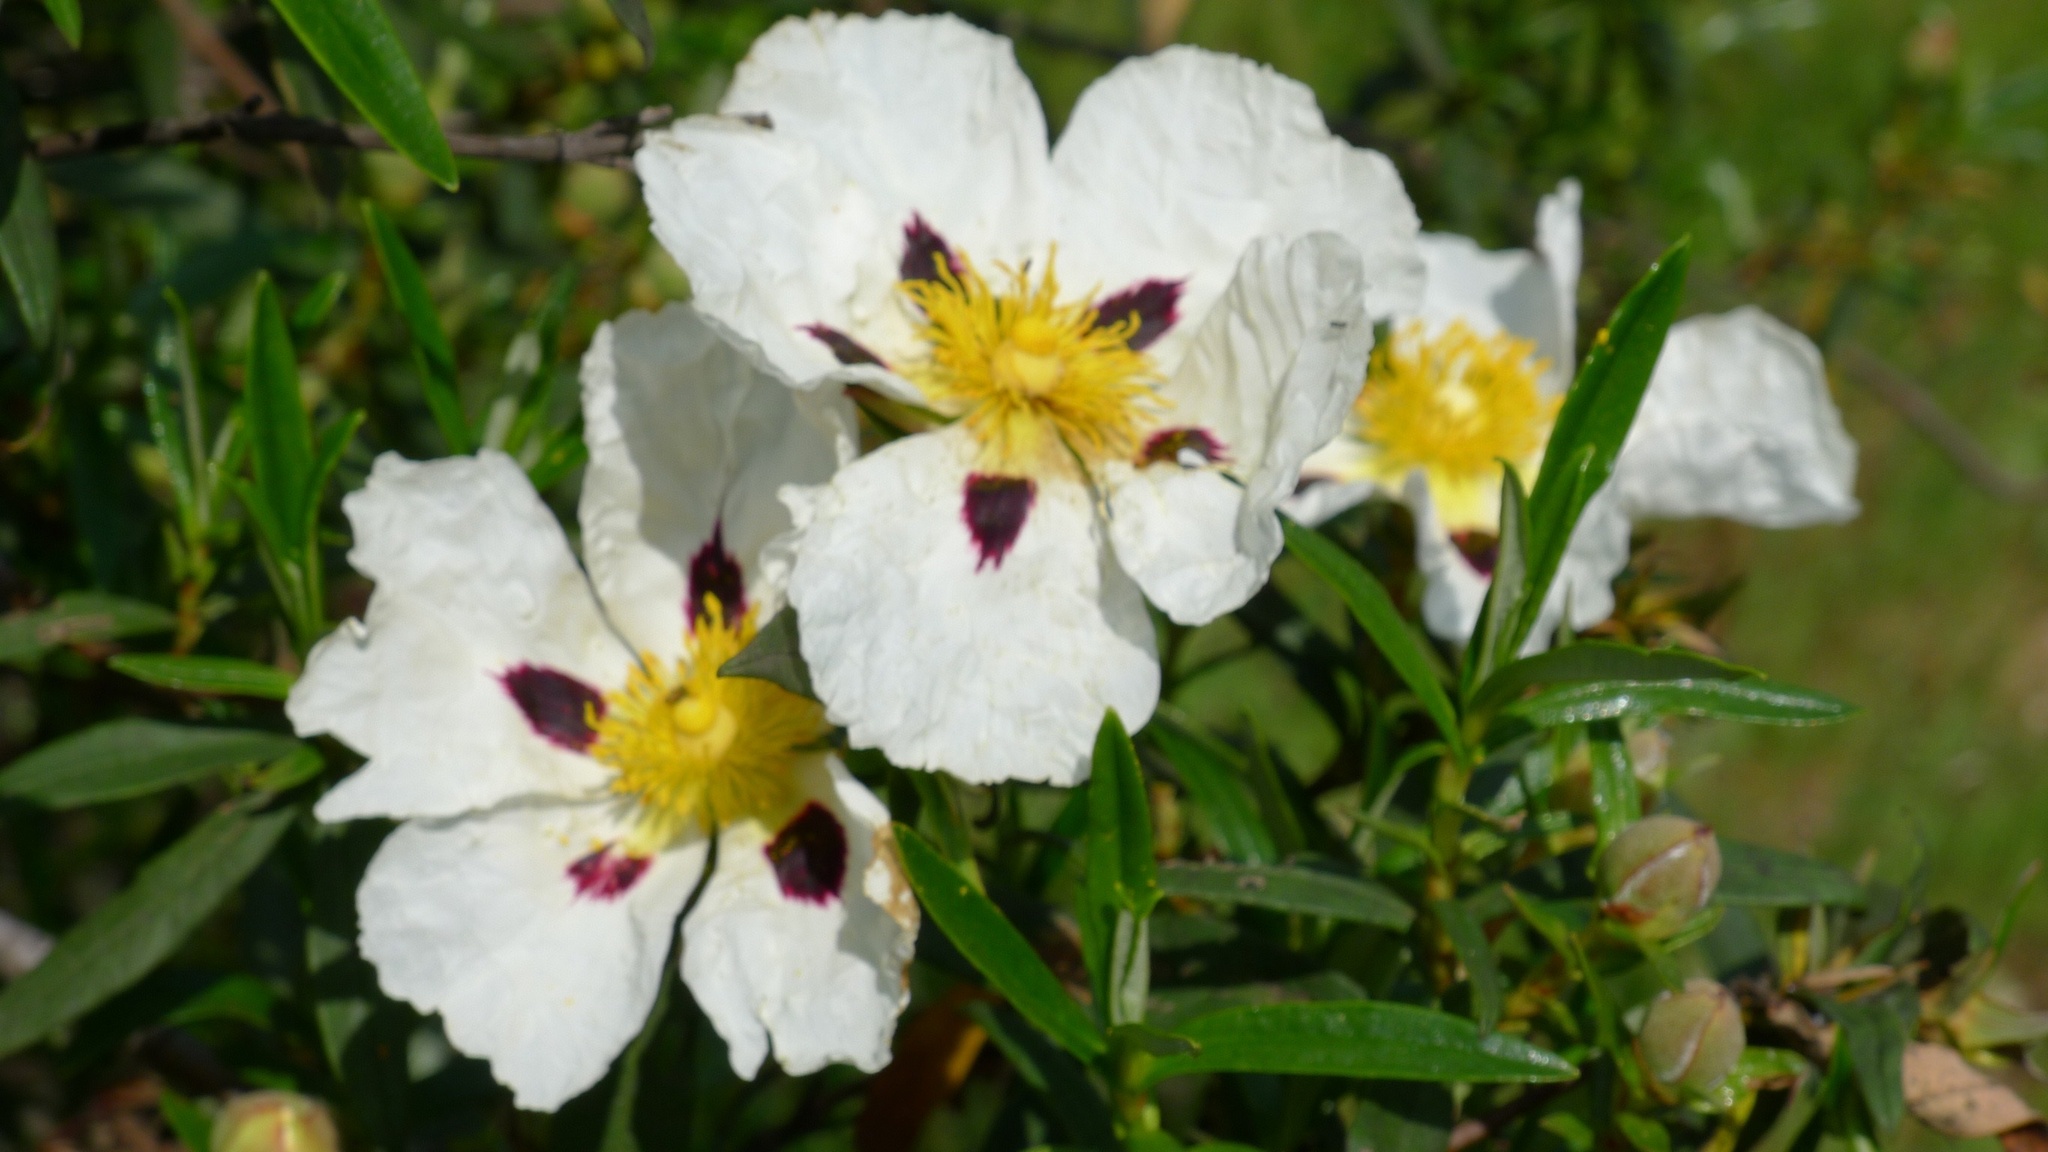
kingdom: Plantae
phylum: Tracheophyta
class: Magnoliopsida
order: Malvales
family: Cistaceae
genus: Cistus
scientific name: Cistus ladanifer
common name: Common gum cistus
